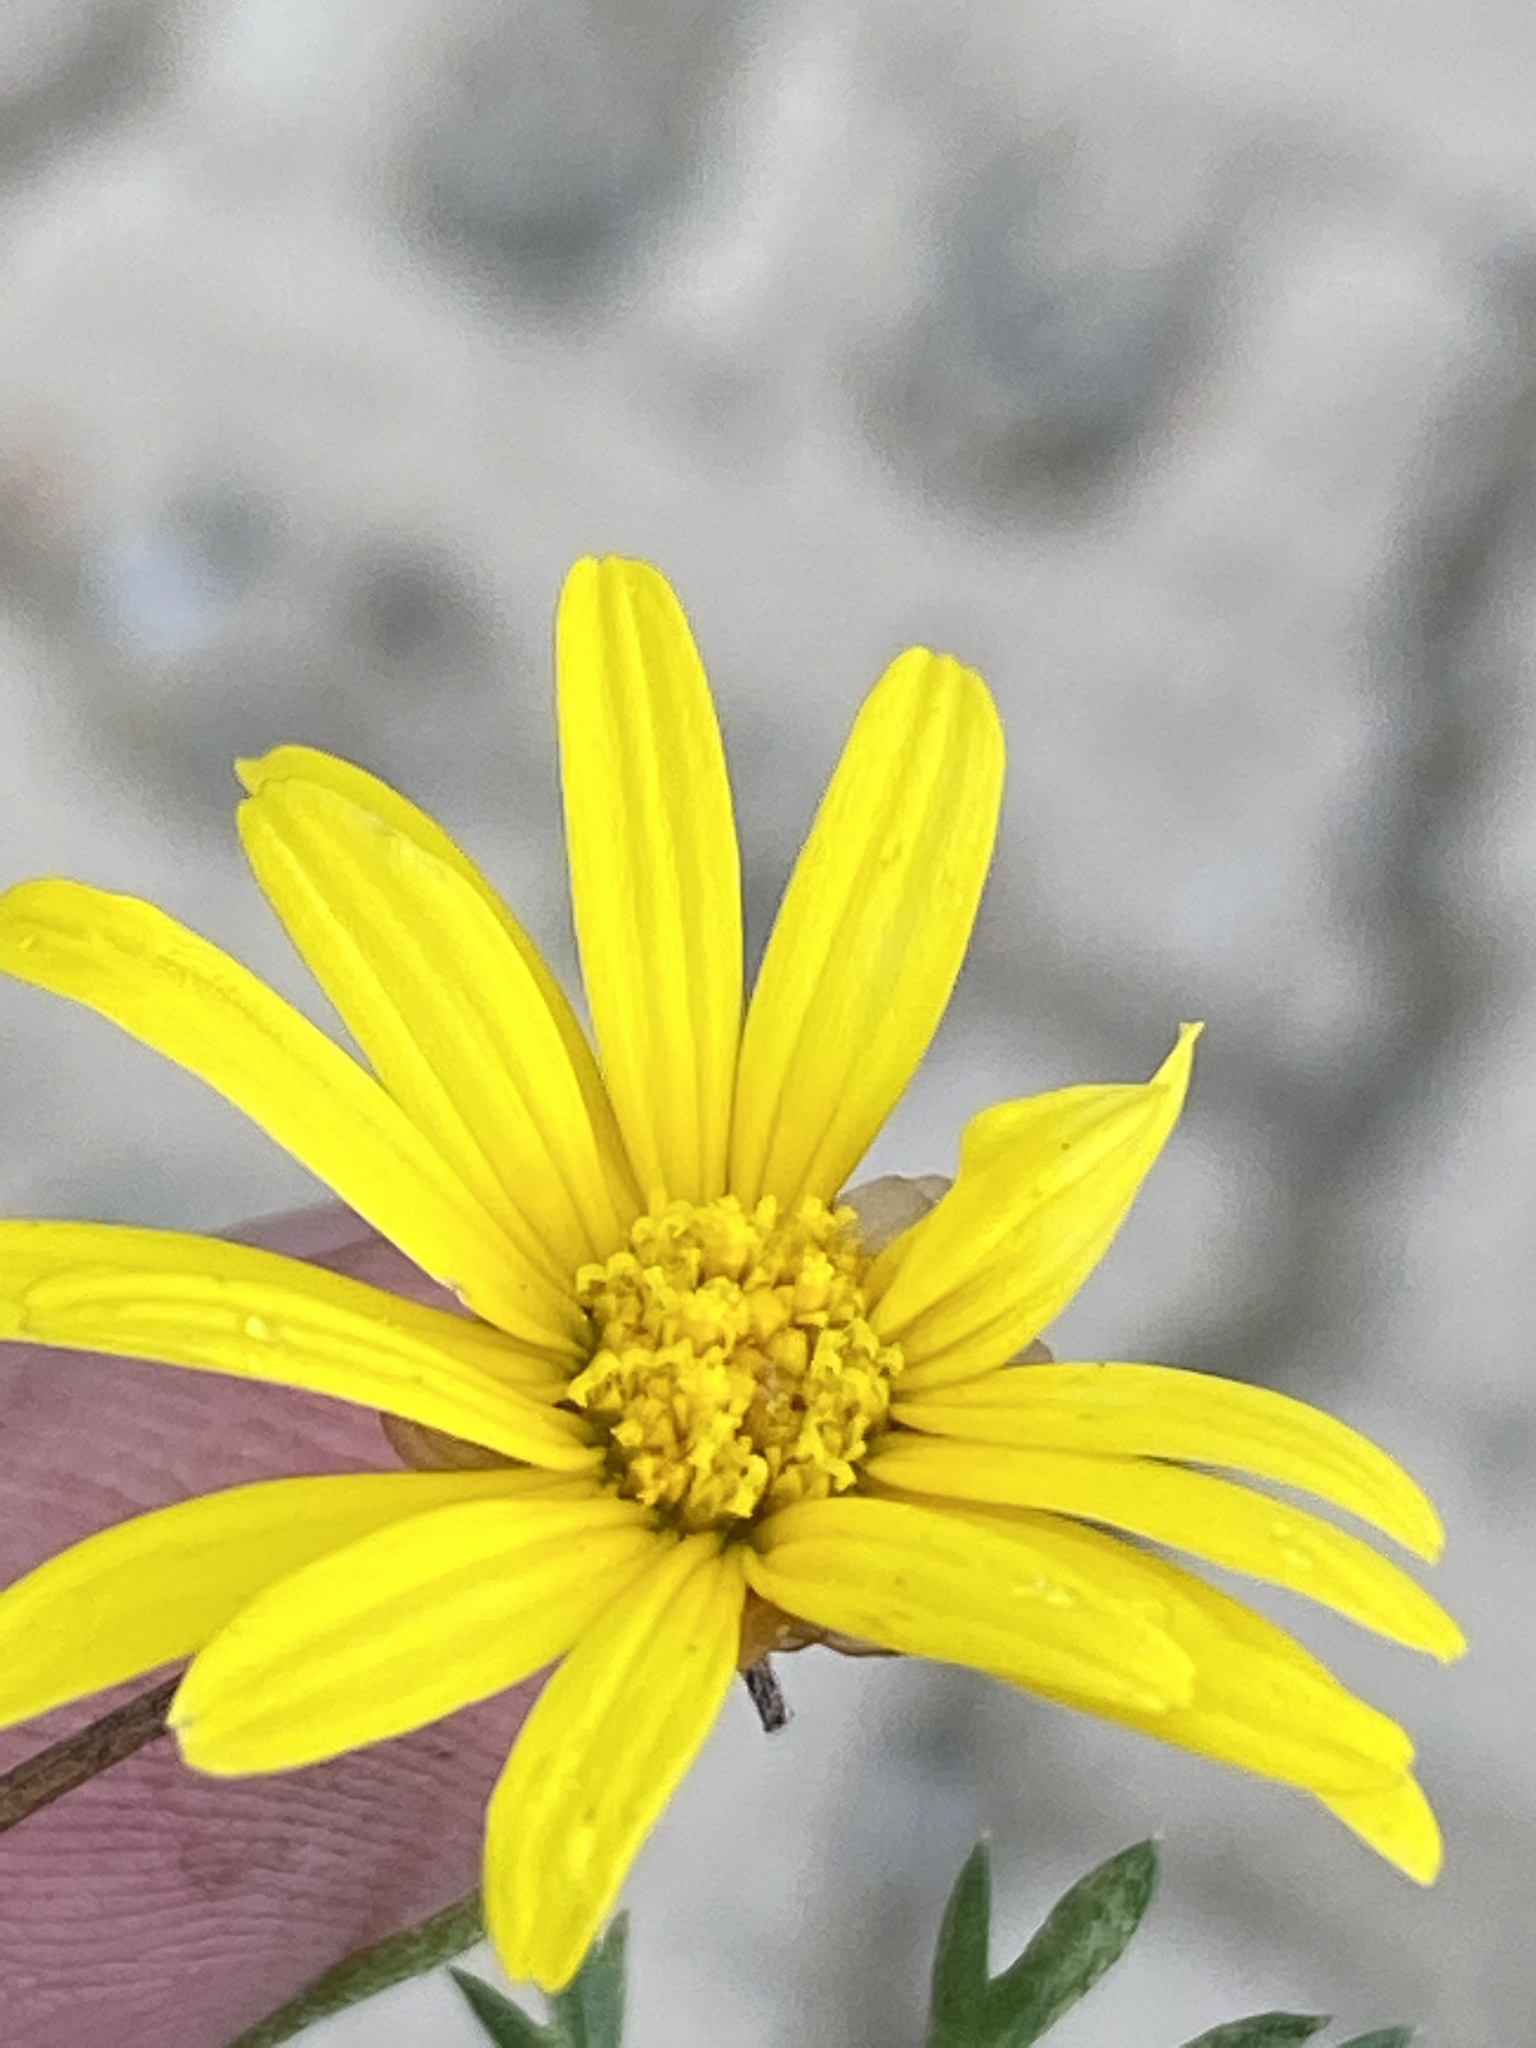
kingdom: Plantae
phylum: Tracheophyta
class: Magnoliopsida
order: Asterales
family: Asteraceae
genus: Ursinia
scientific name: Ursinia anethoides
